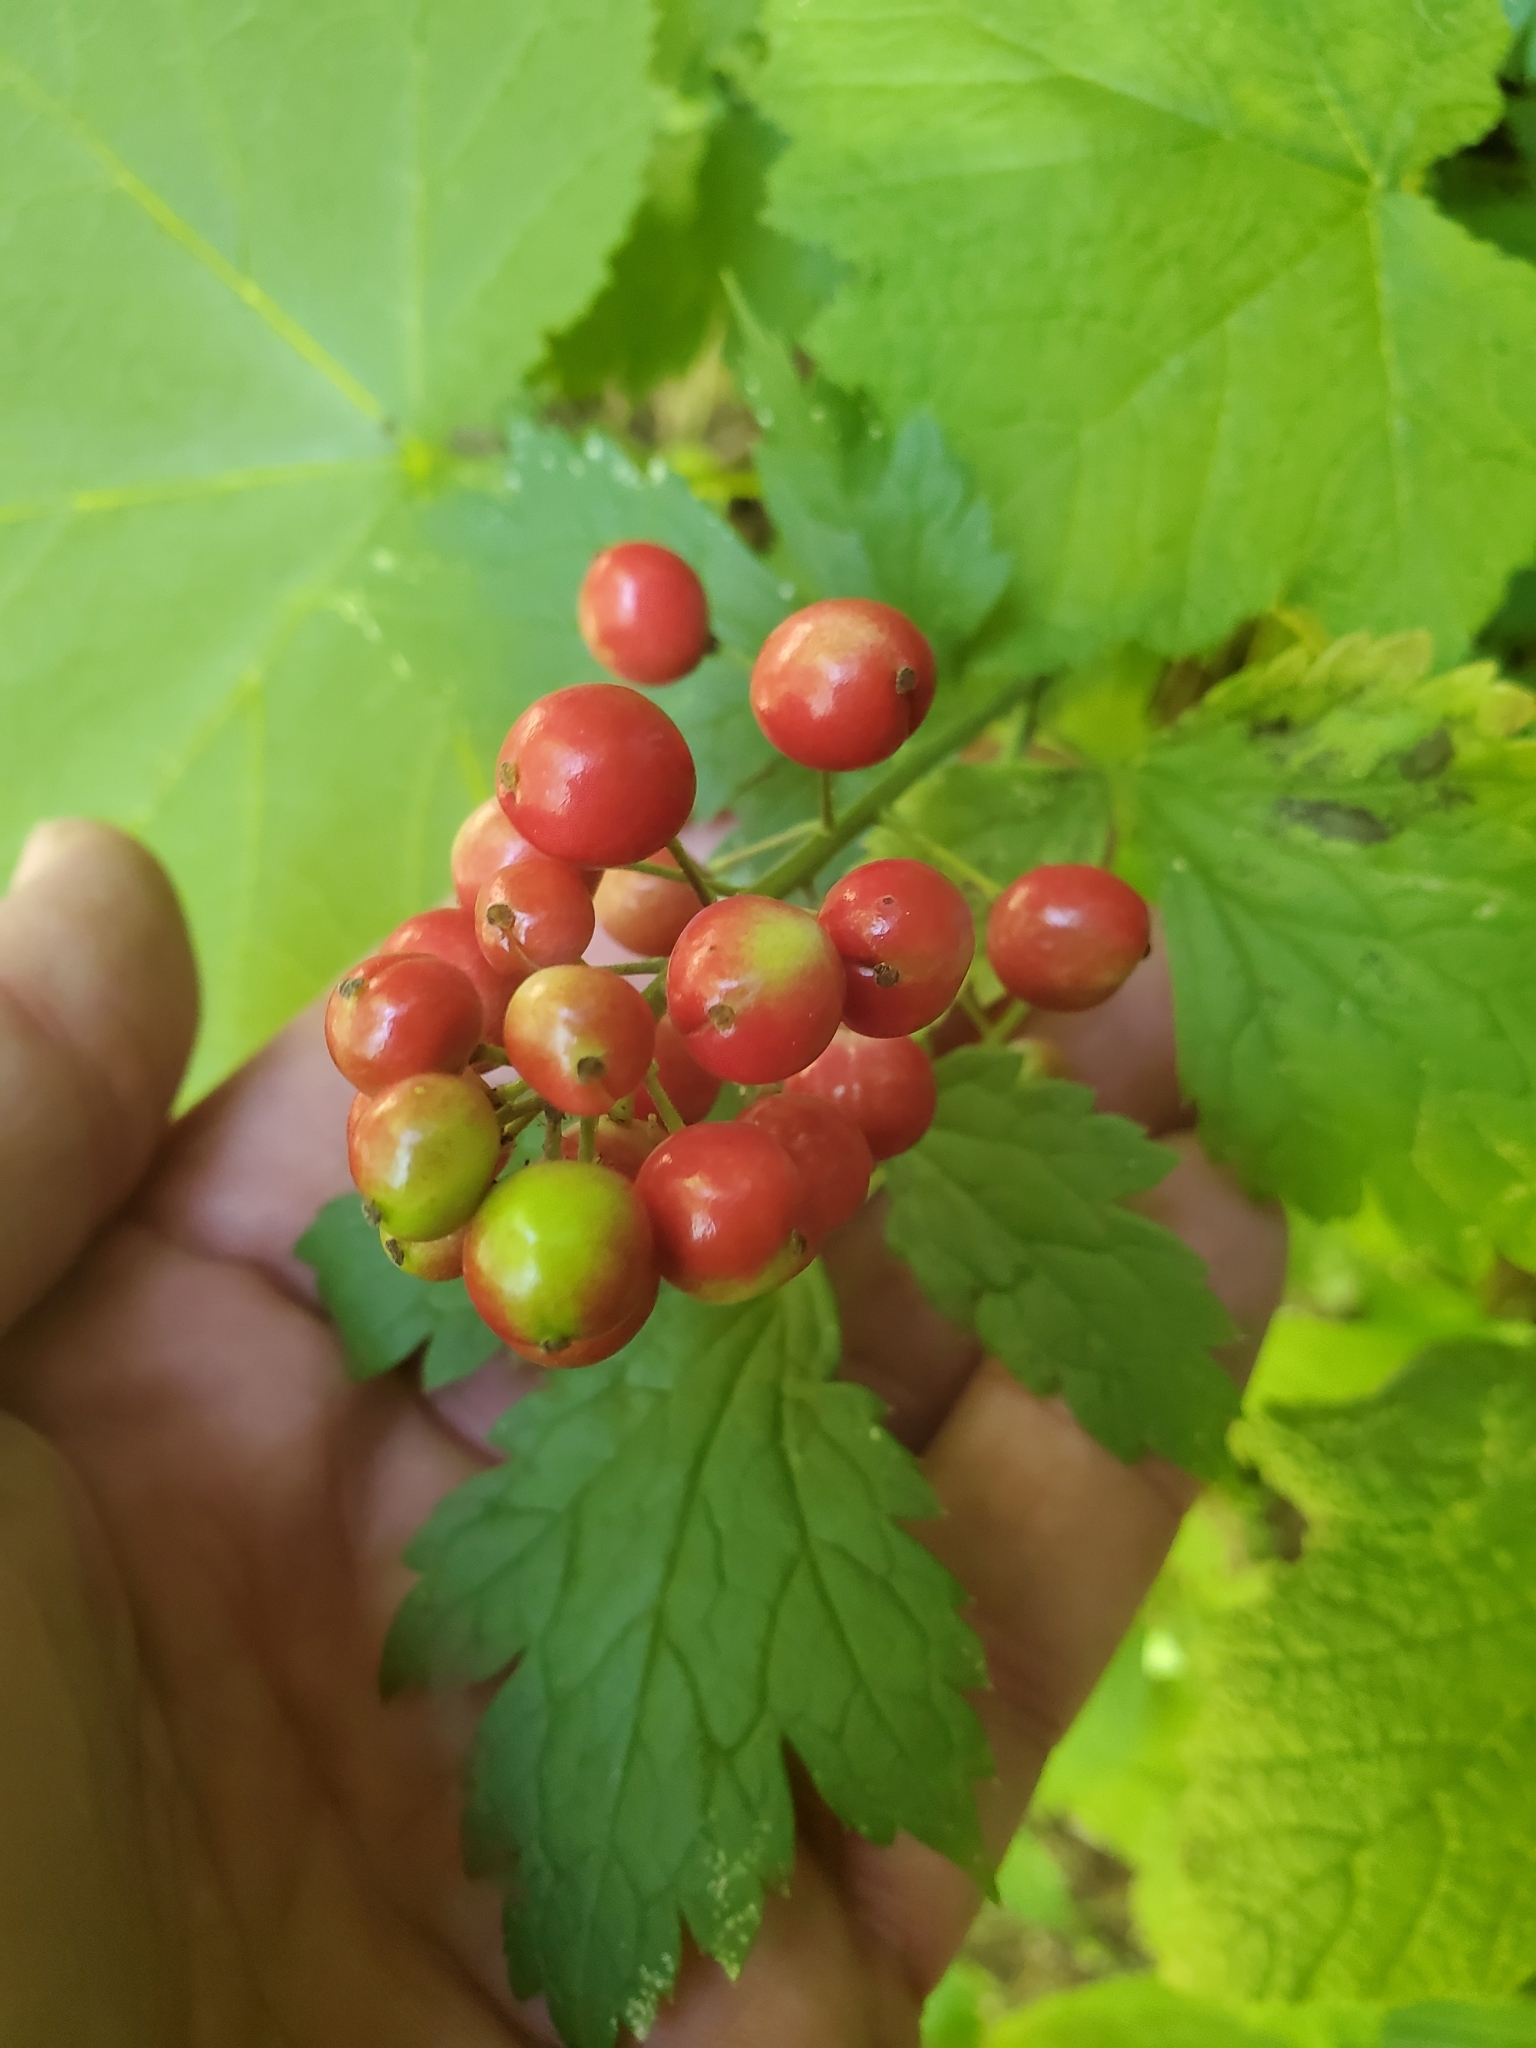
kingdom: Plantae
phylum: Tracheophyta
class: Magnoliopsida
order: Ranunculales
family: Ranunculaceae
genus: Actaea
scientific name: Actaea rubra
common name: Red baneberry
